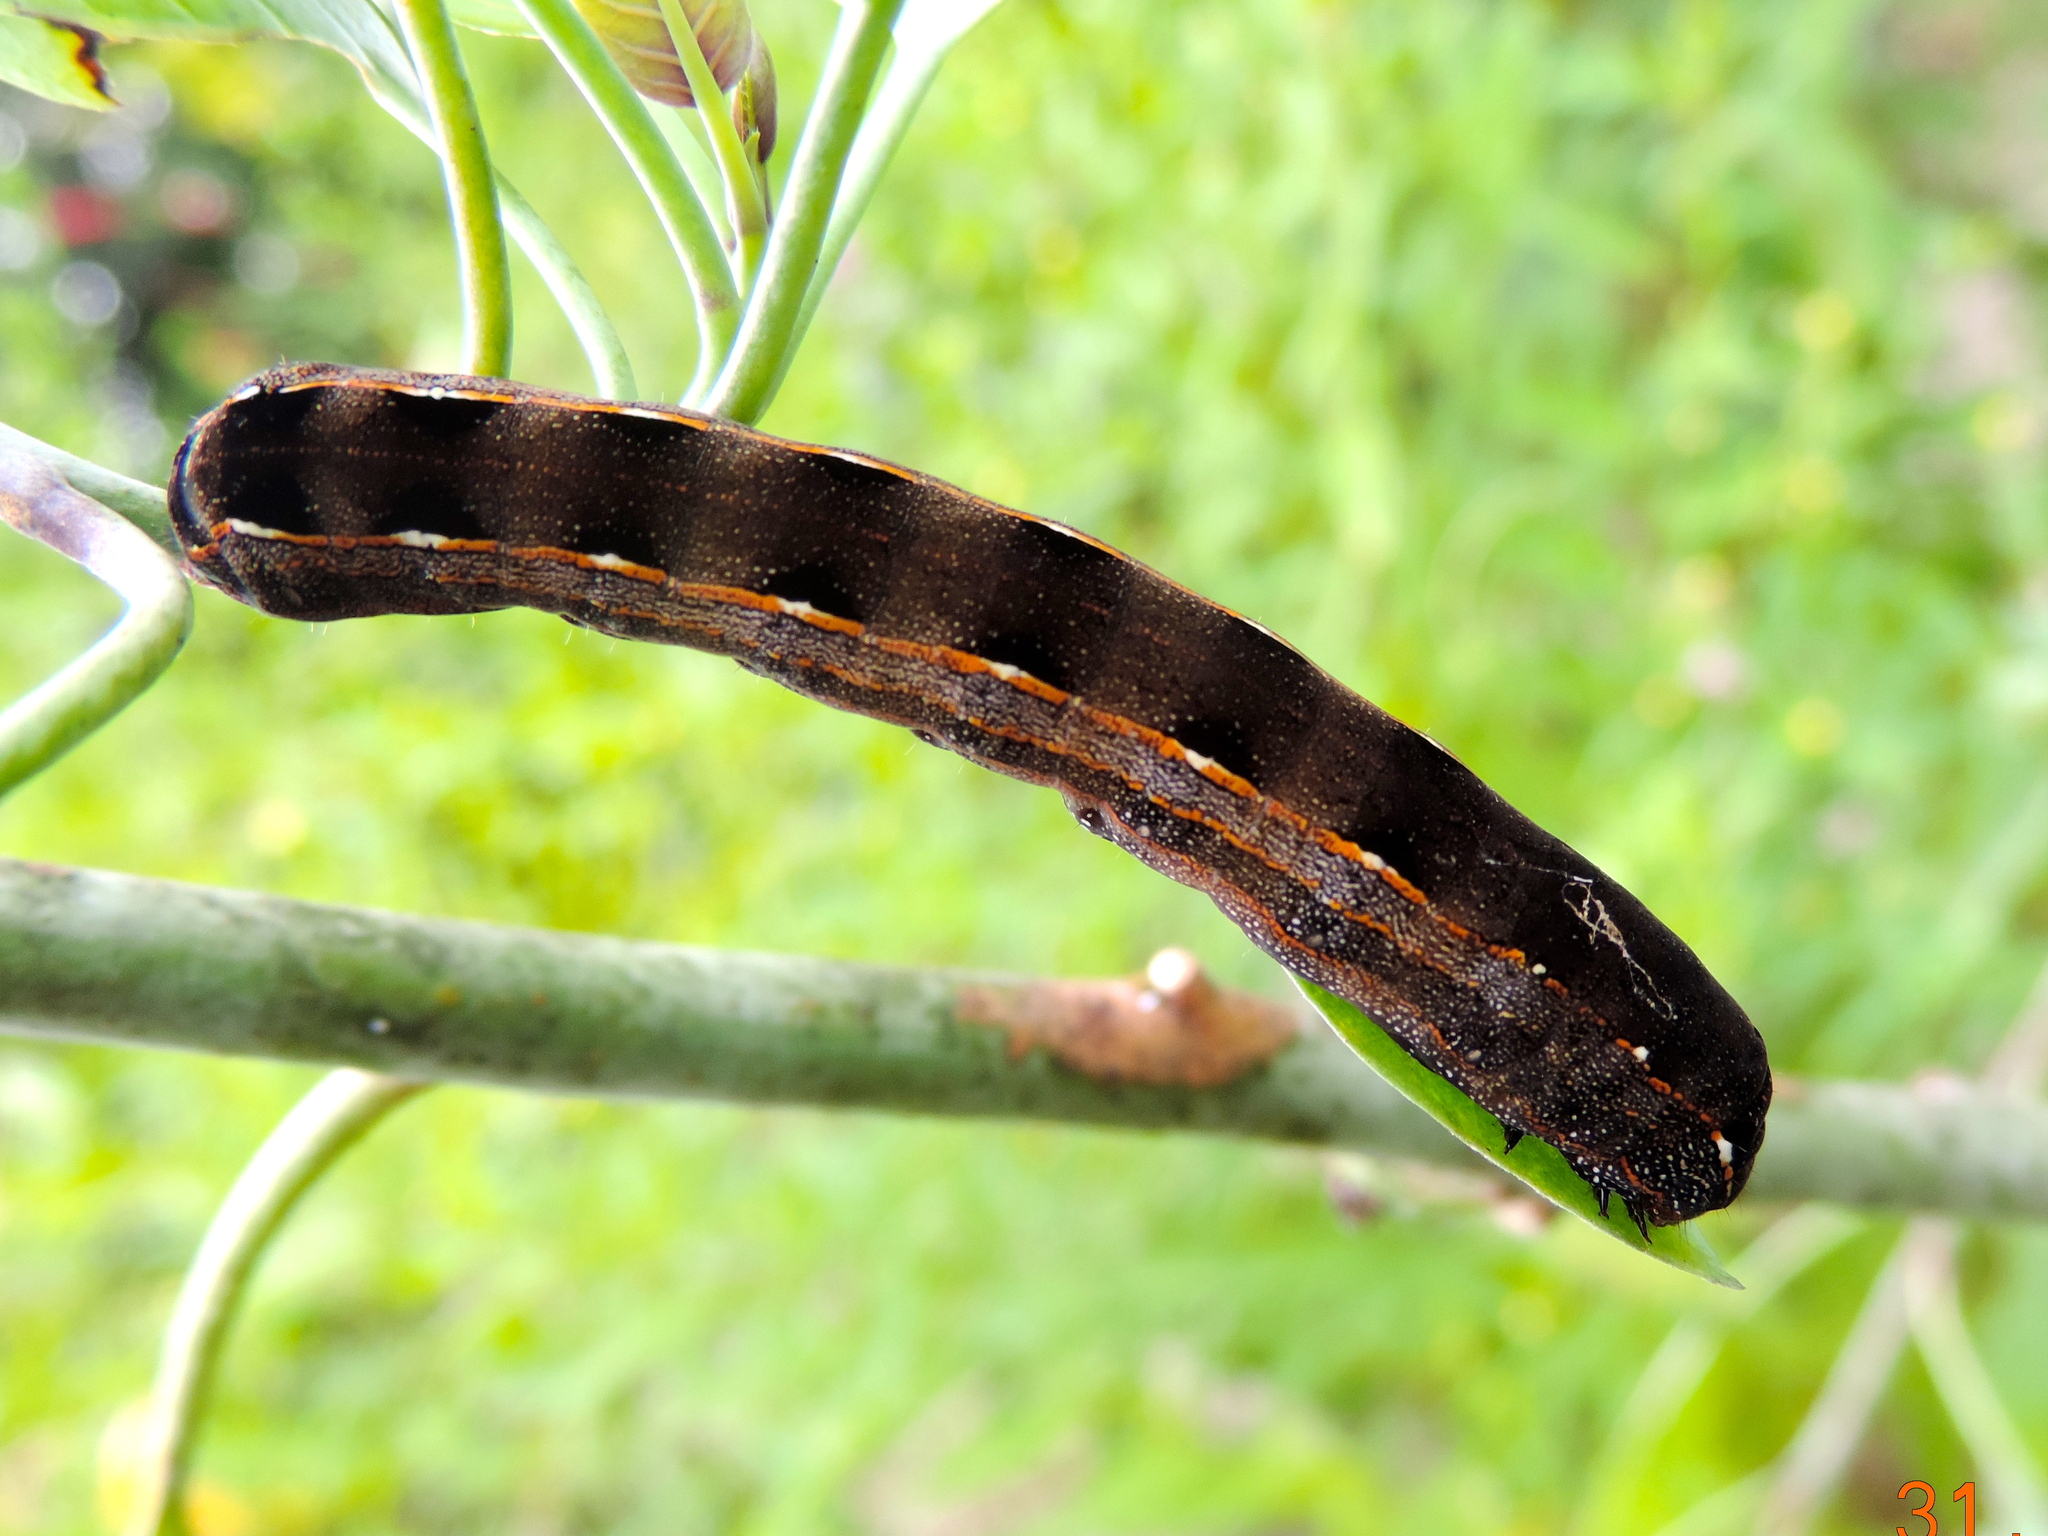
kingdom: Animalia
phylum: Arthropoda
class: Insecta
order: Lepidoptera
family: Noctuidae
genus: Spodoptera
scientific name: Spodoptera
